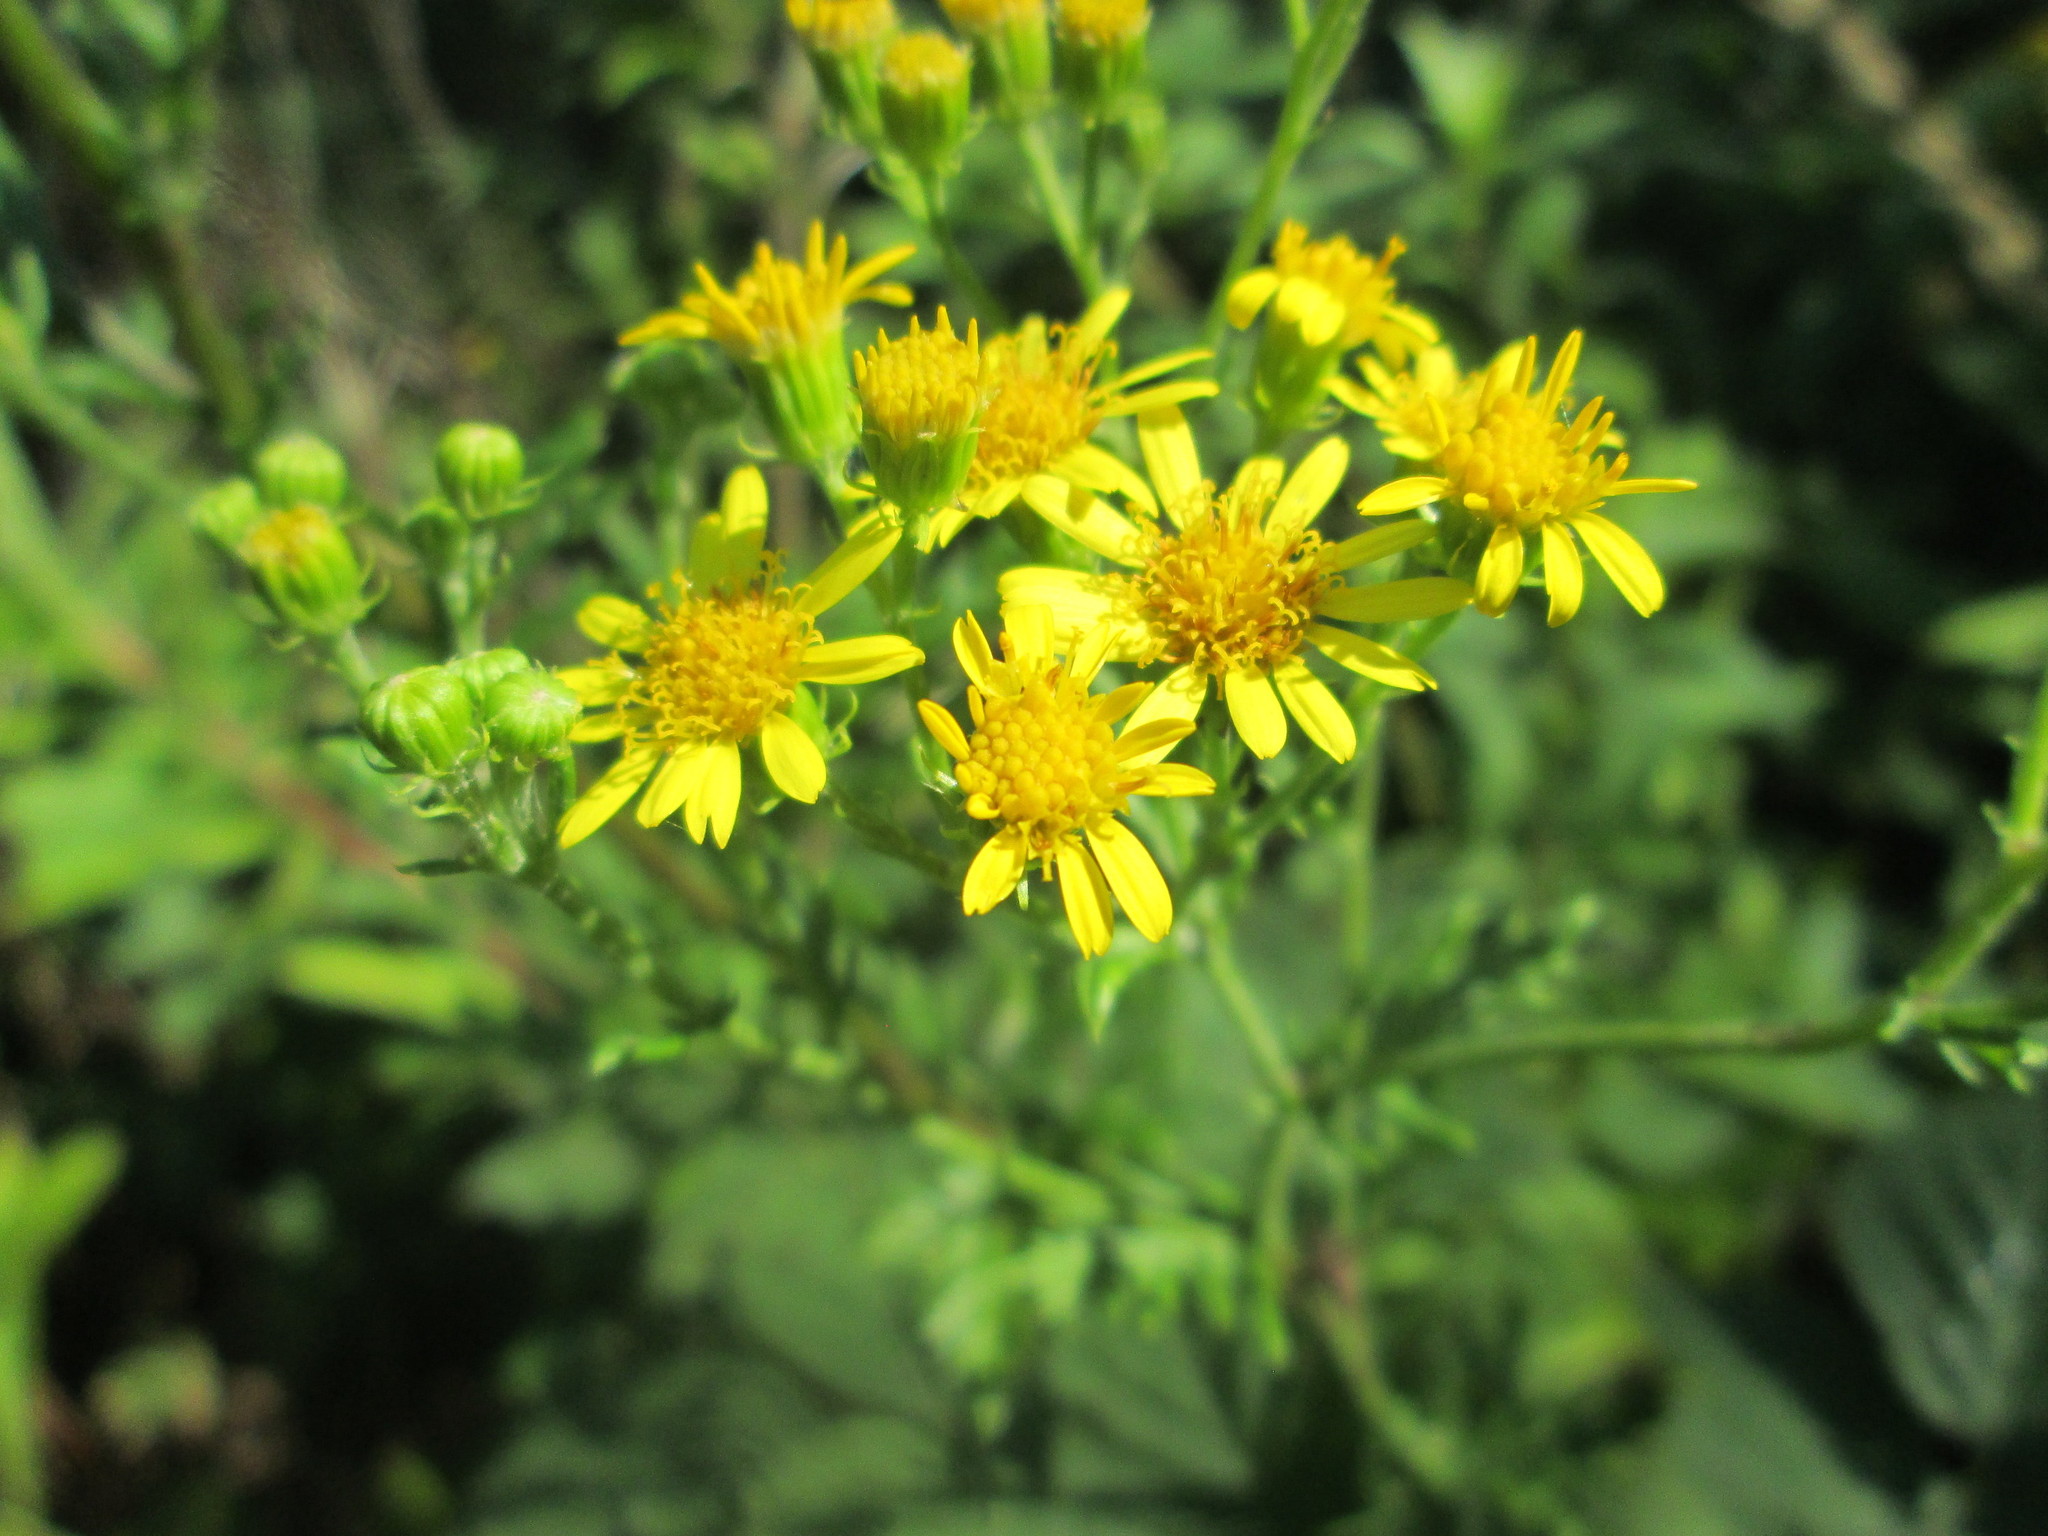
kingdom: Plantae
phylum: Tracheophyta
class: Magnoliopsida
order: Asterales
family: Asteraceae
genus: Jacobaea
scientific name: Jacobaea erucifolia
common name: Hoary ragwort
